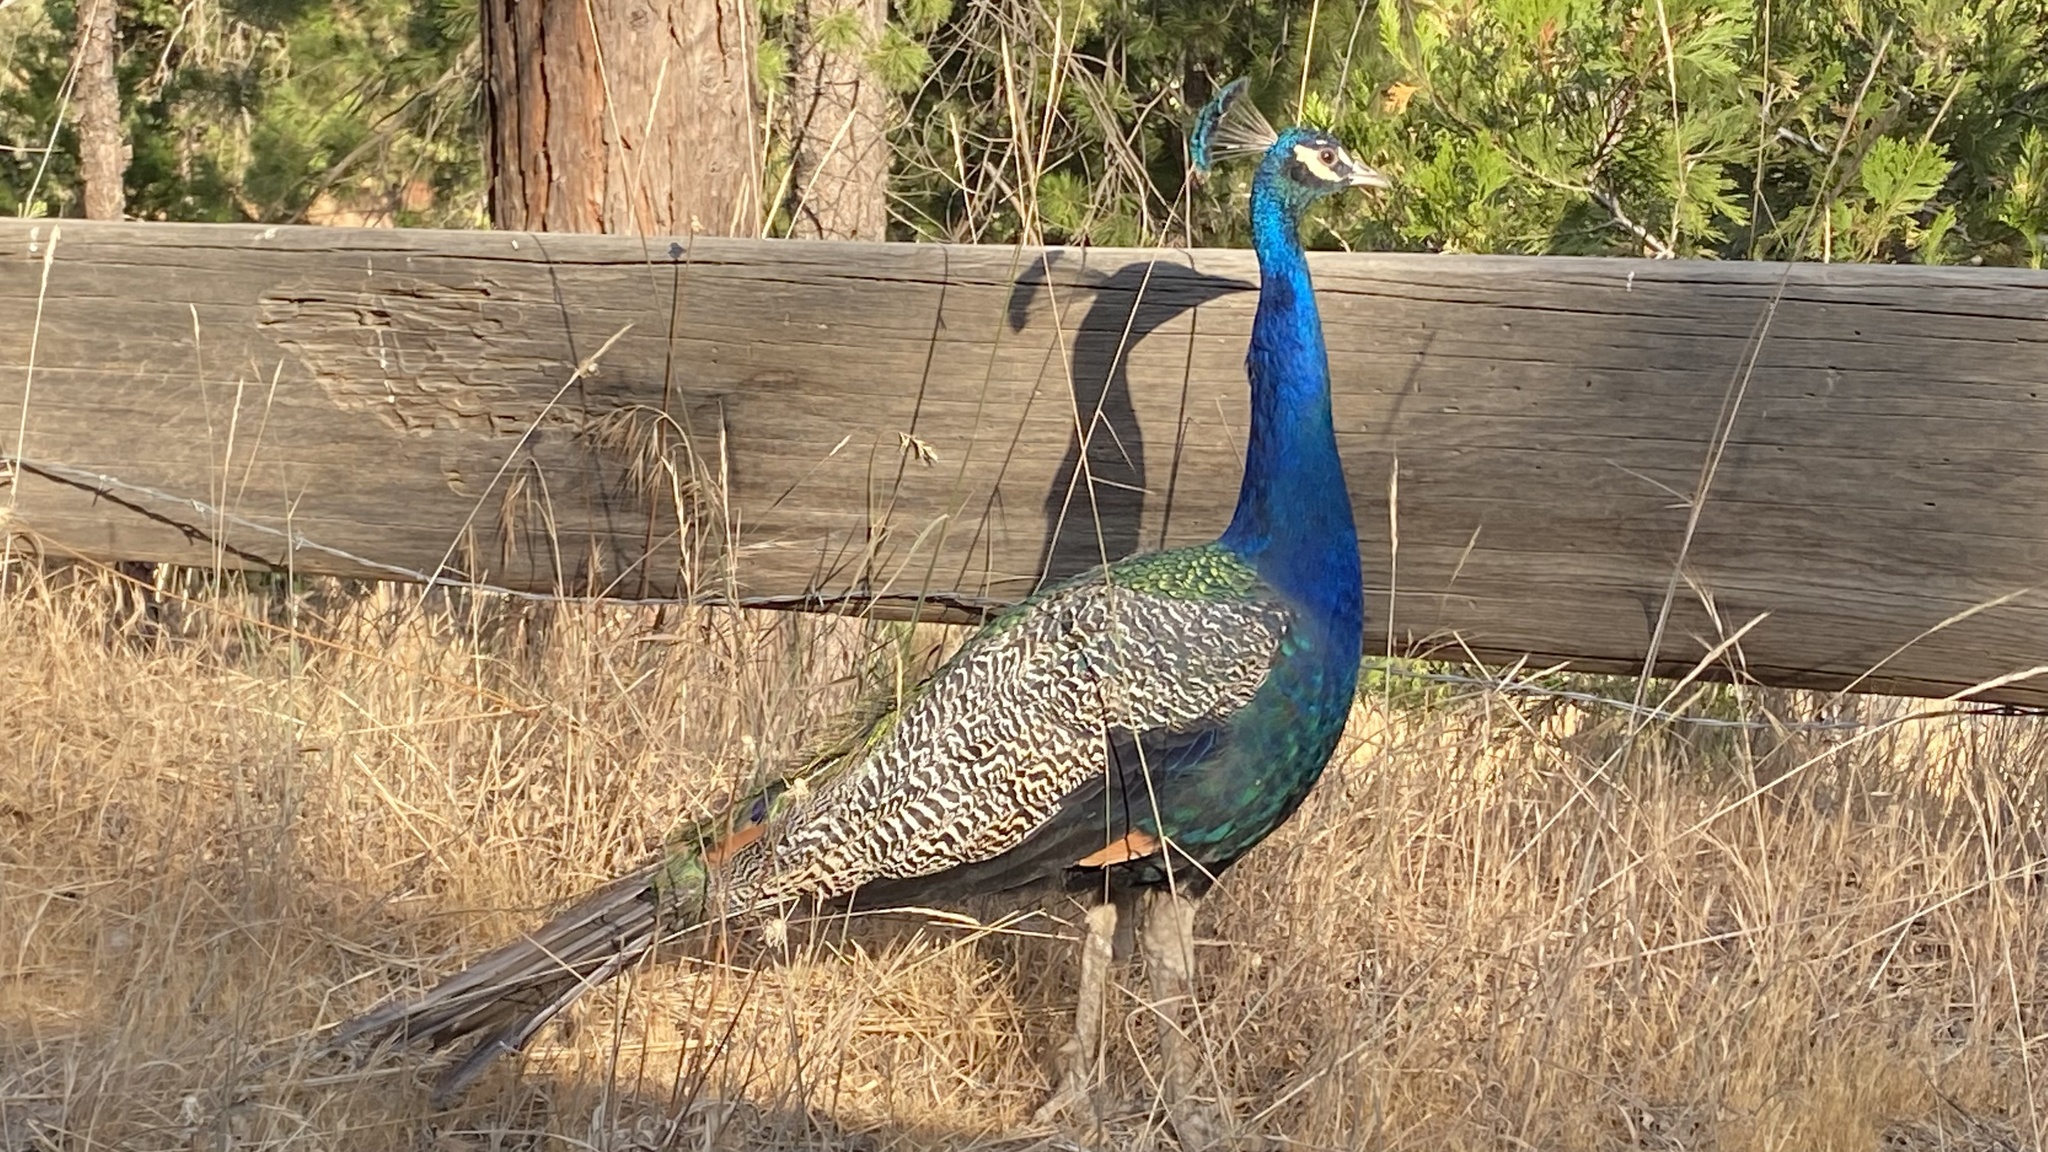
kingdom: Animalia
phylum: Chordata
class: Aves
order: Galliformes
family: Phasianidae
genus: Pavo
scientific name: Pavo cristatus
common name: Indian peafowl
